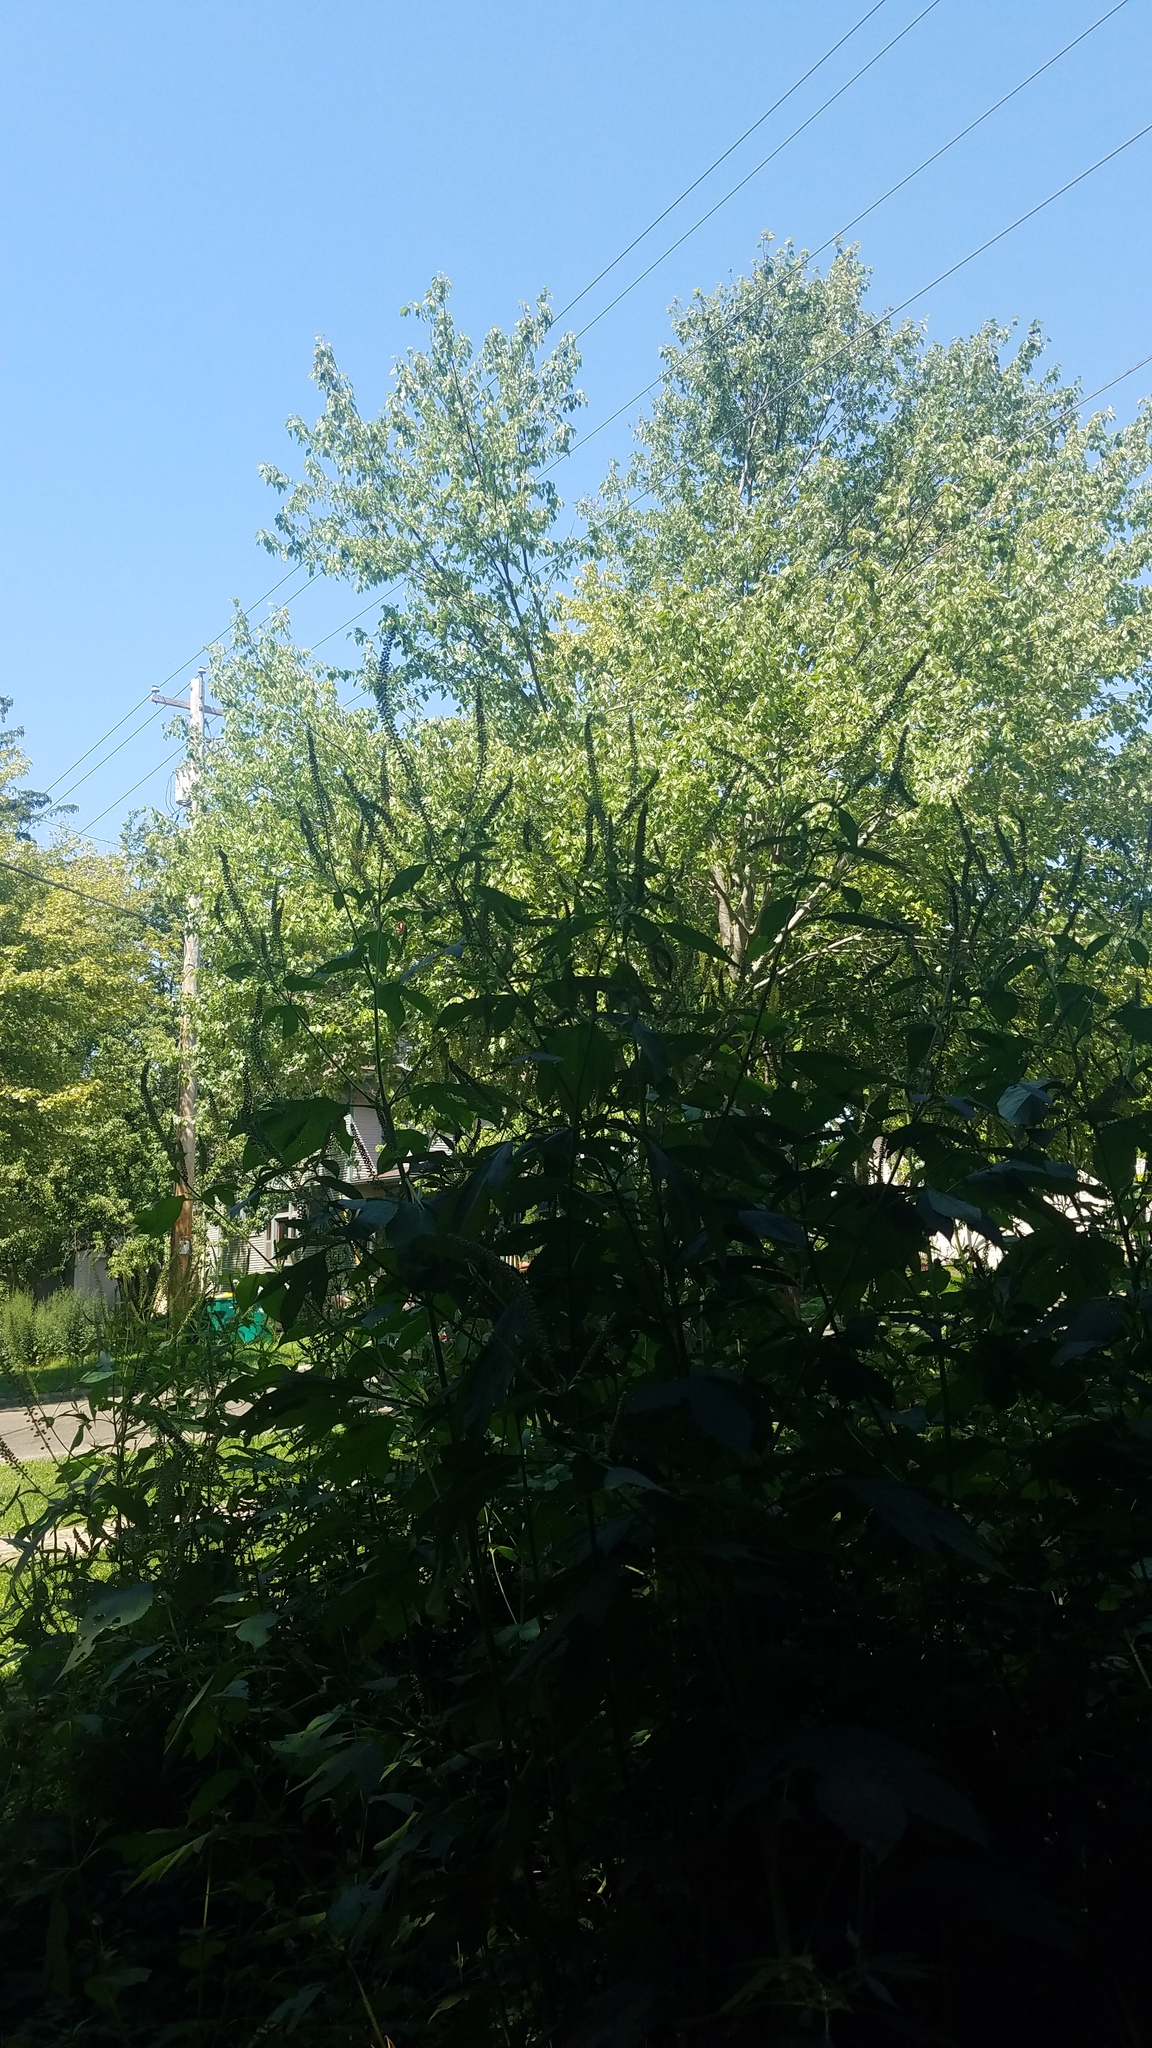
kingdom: Plantae
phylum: Tracheophyta
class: Magnoliopsida
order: Asterales
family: Asteraceae
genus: Ambrosia
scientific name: Ambrosia trifida
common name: Giant ragweed
